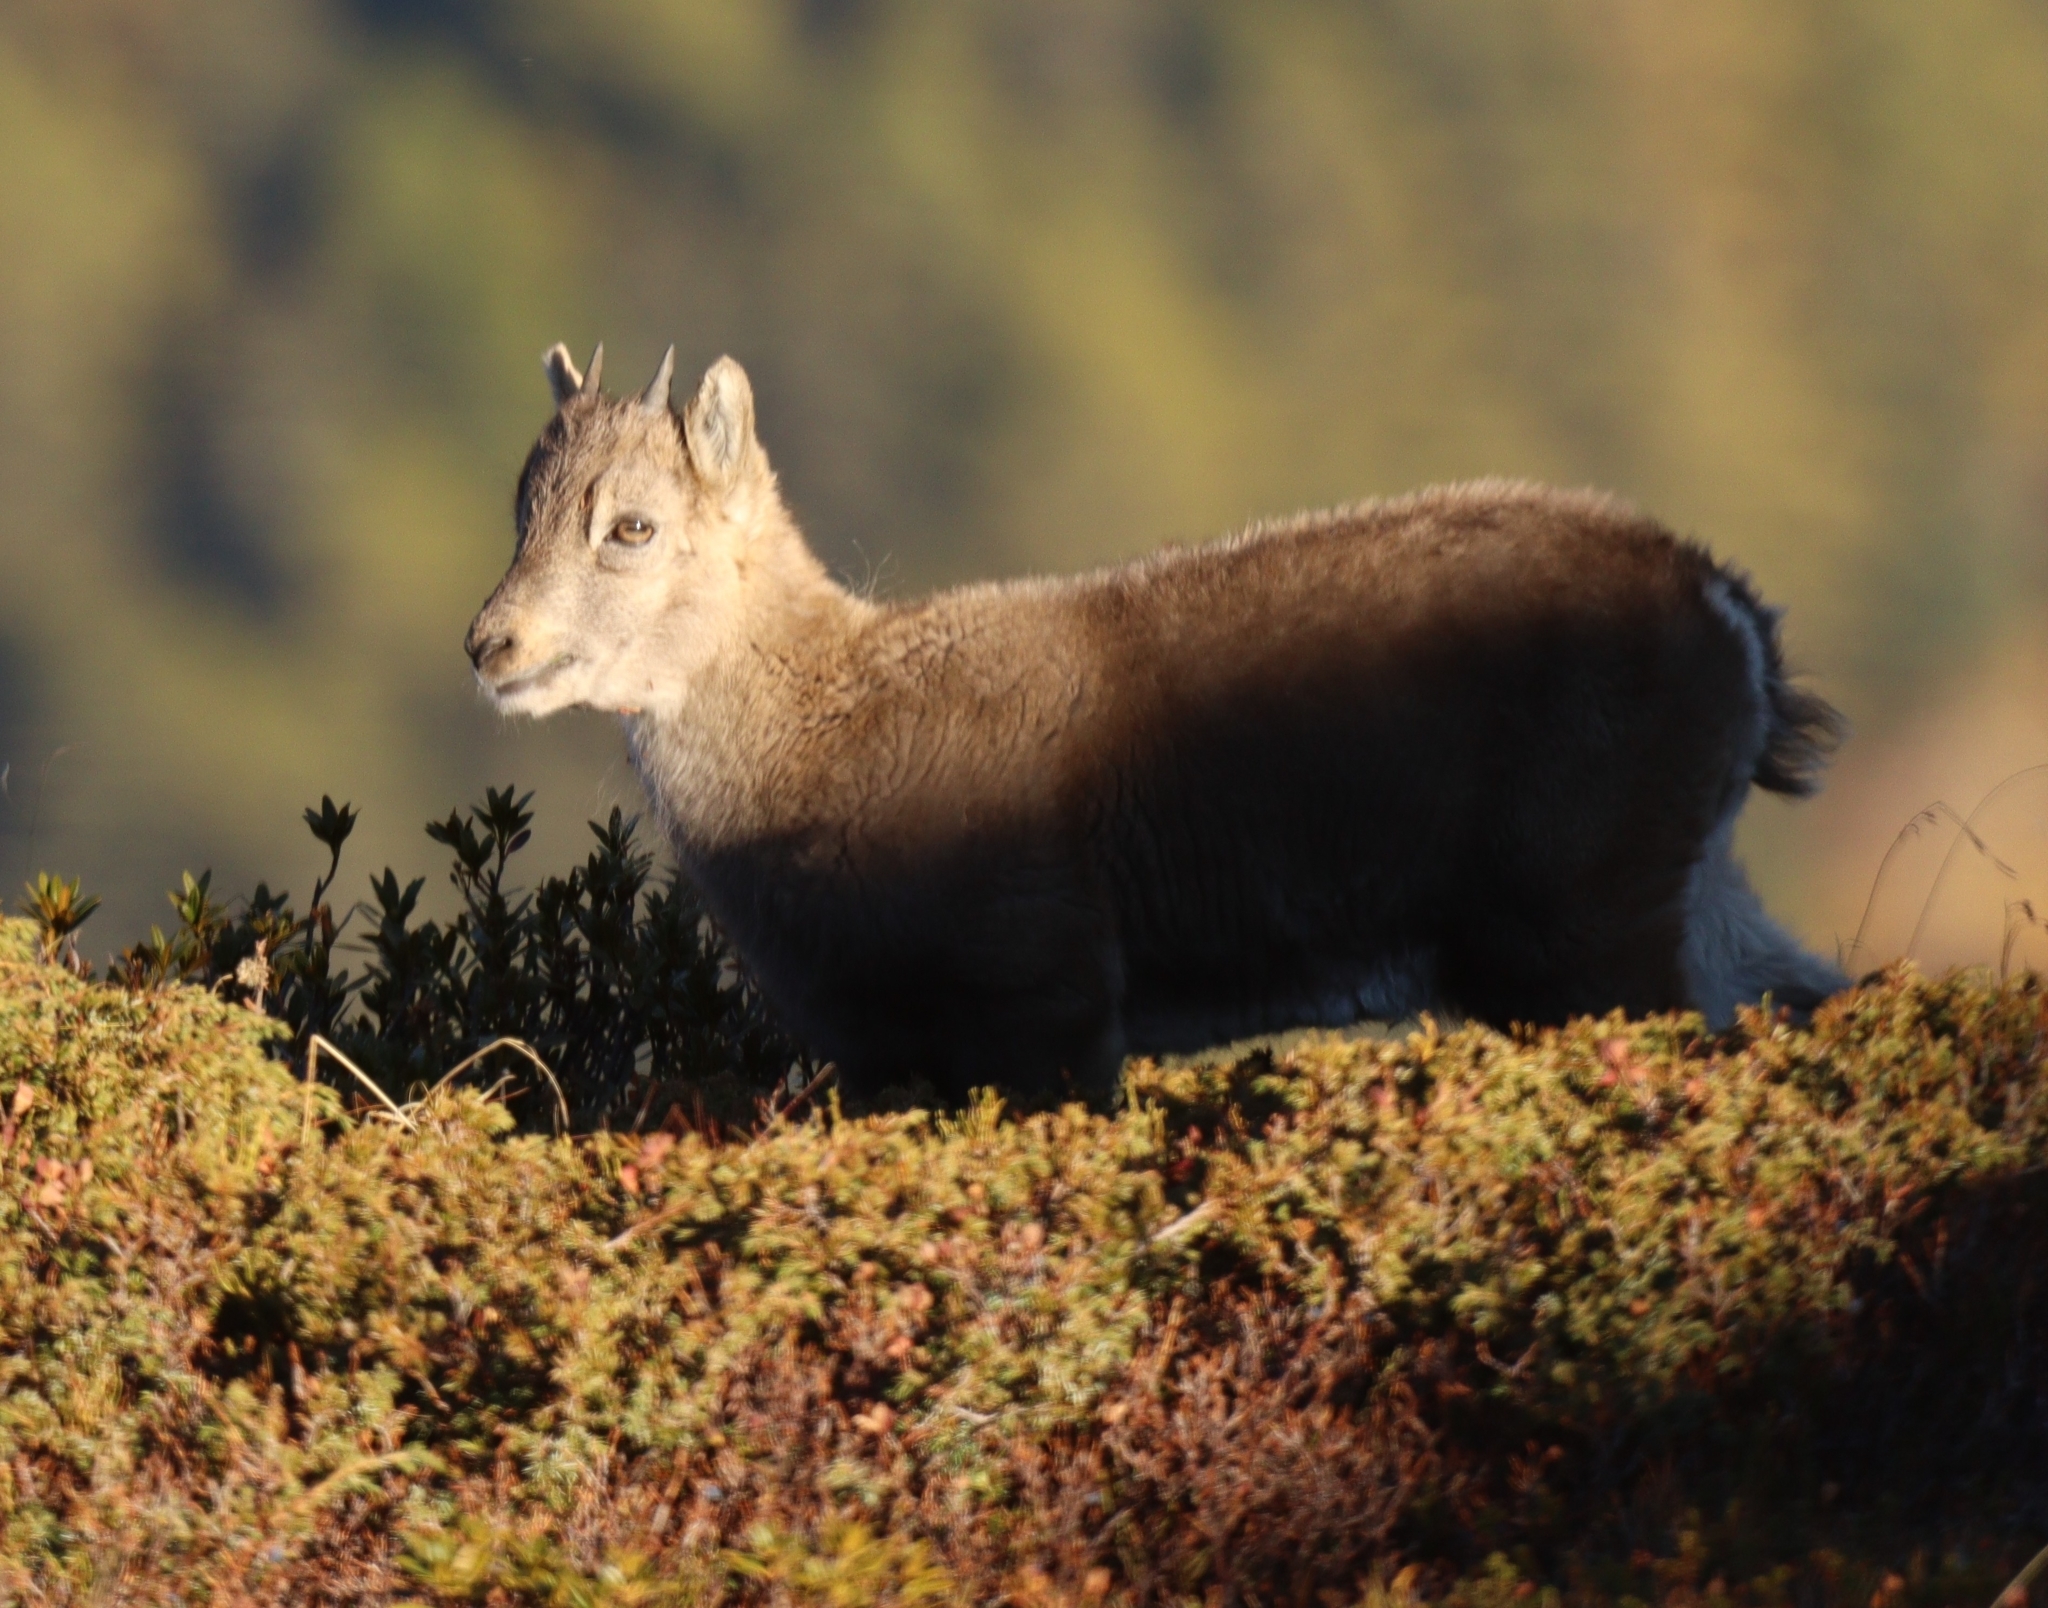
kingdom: Animalia
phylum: Chordata
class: Mammalia
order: Artiodactyla
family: Bovidae
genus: Capra
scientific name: Capra ibex
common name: Alpine ibex
